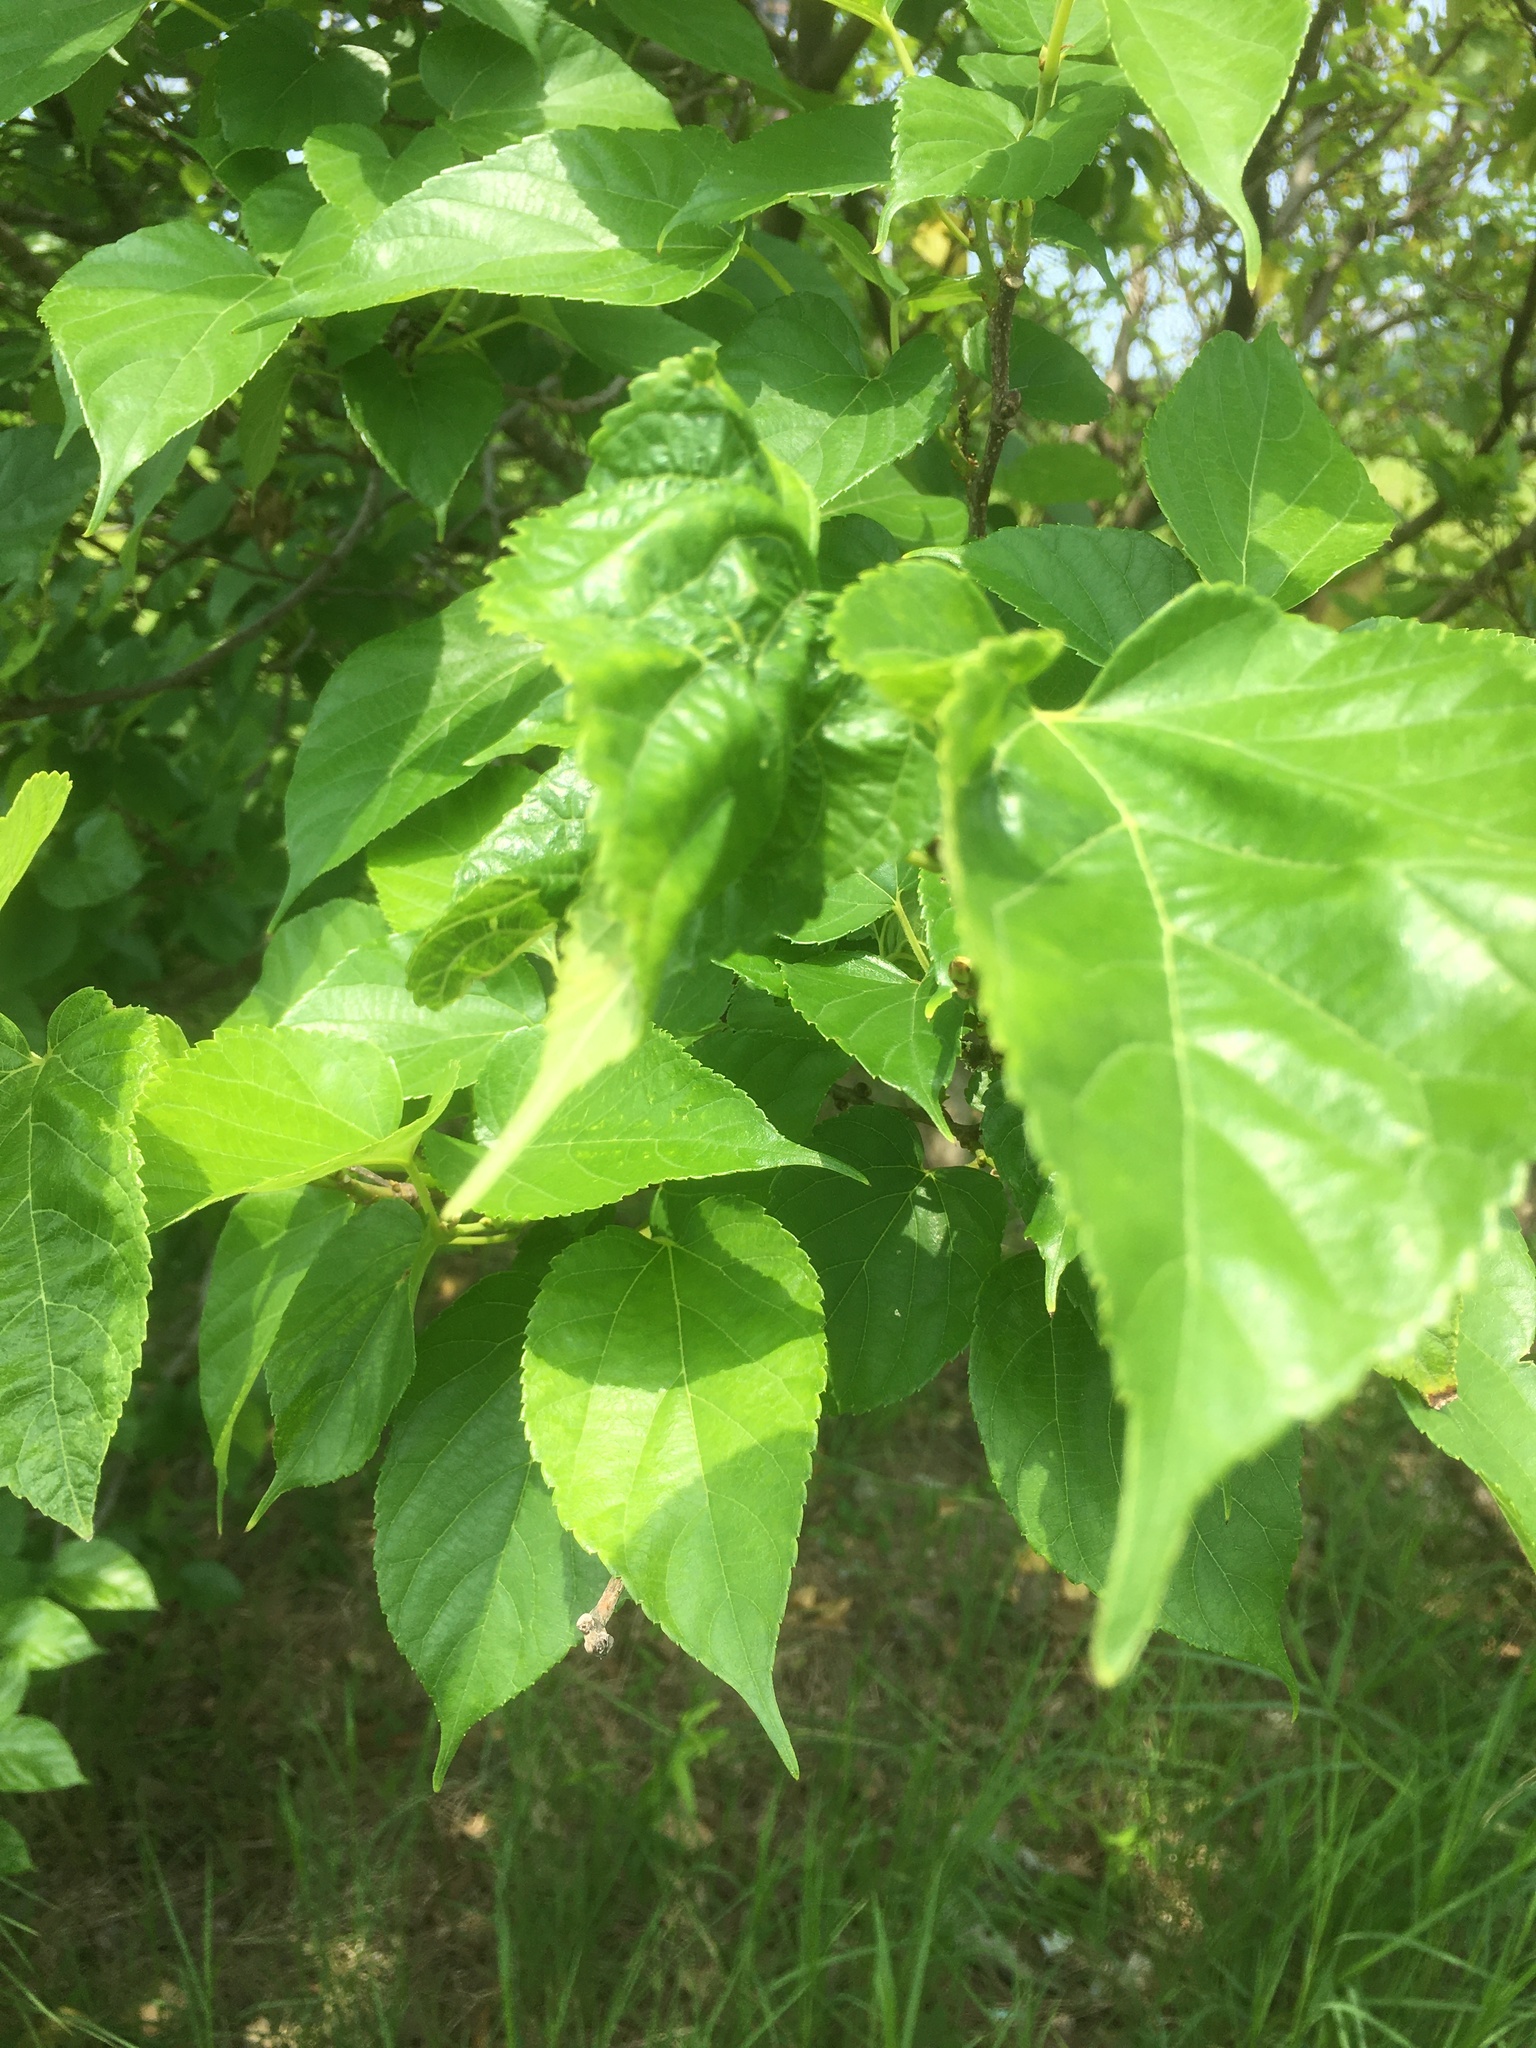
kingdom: Plantae
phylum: Tracheophyta
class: Magnoliopsida
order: Rosales
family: Moraceae
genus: Morus
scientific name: Morus indica
